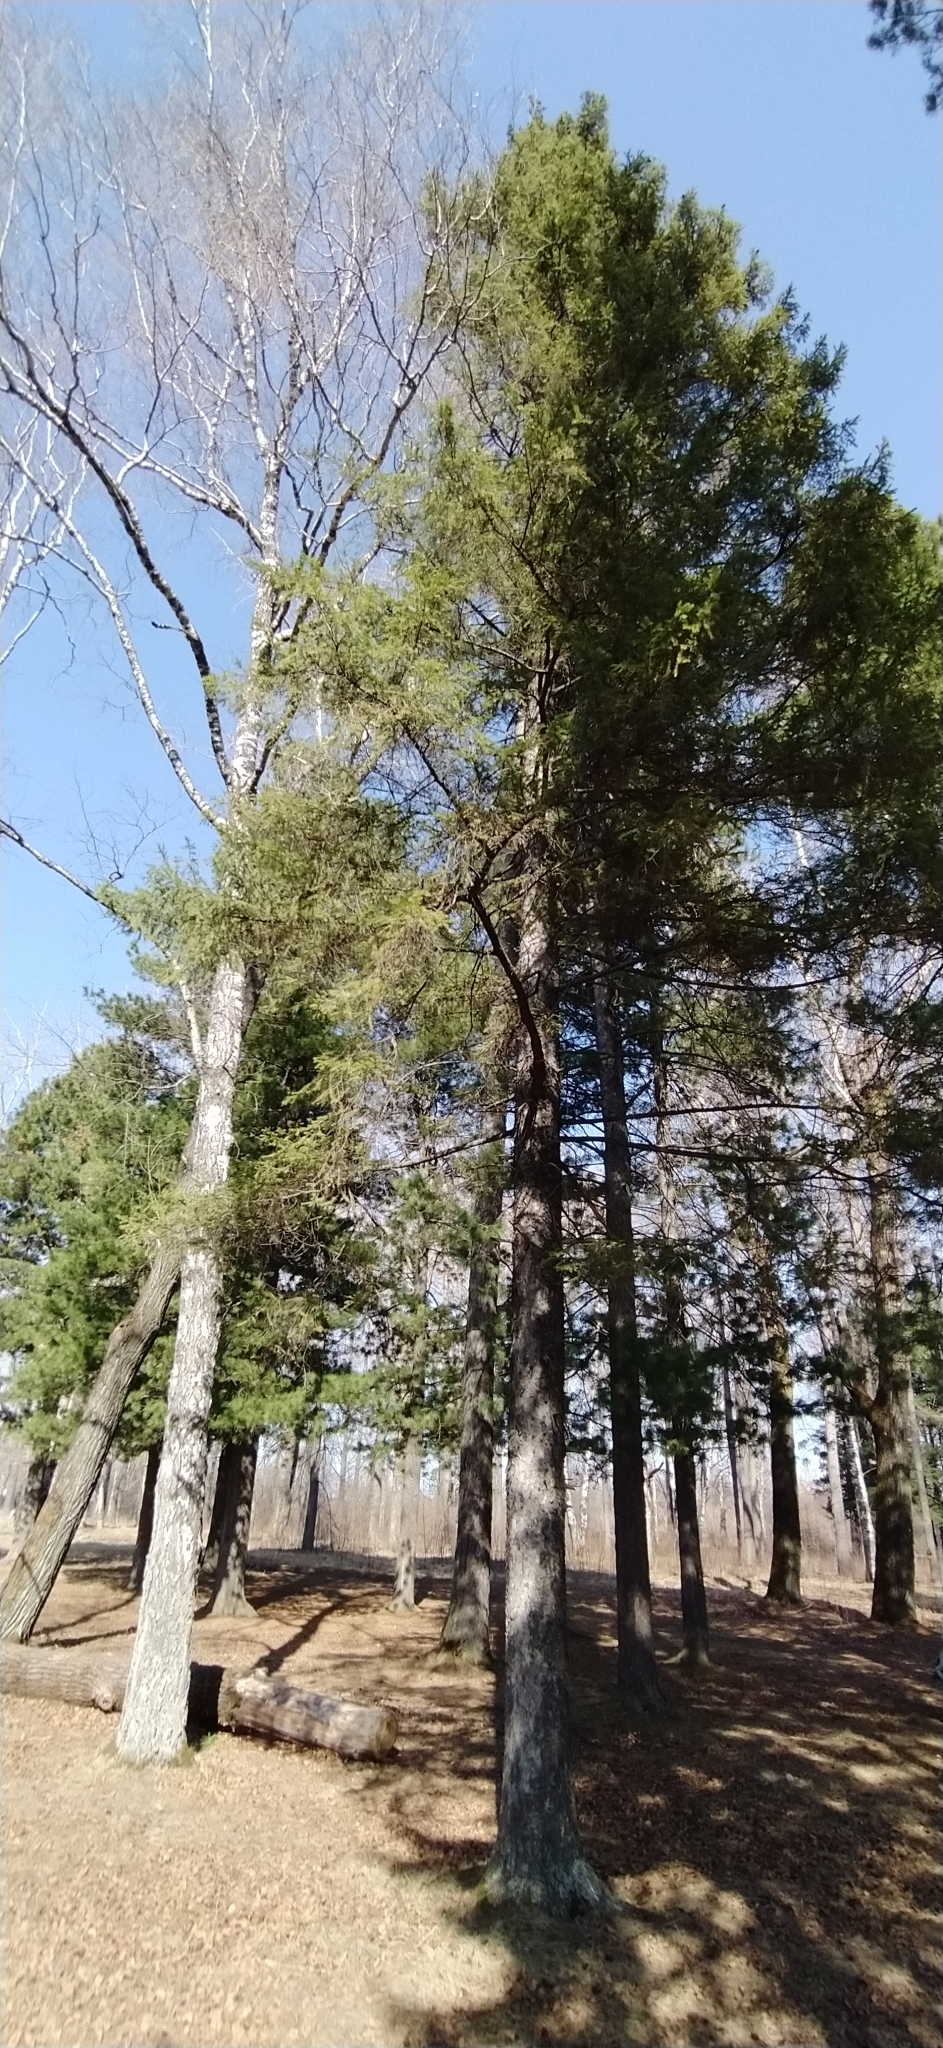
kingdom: Plantae
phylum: Tracheophyta
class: Pinopsida
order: Pinales
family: Pinaceae
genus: Picea
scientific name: Picea obovata
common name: Siberian spruce
